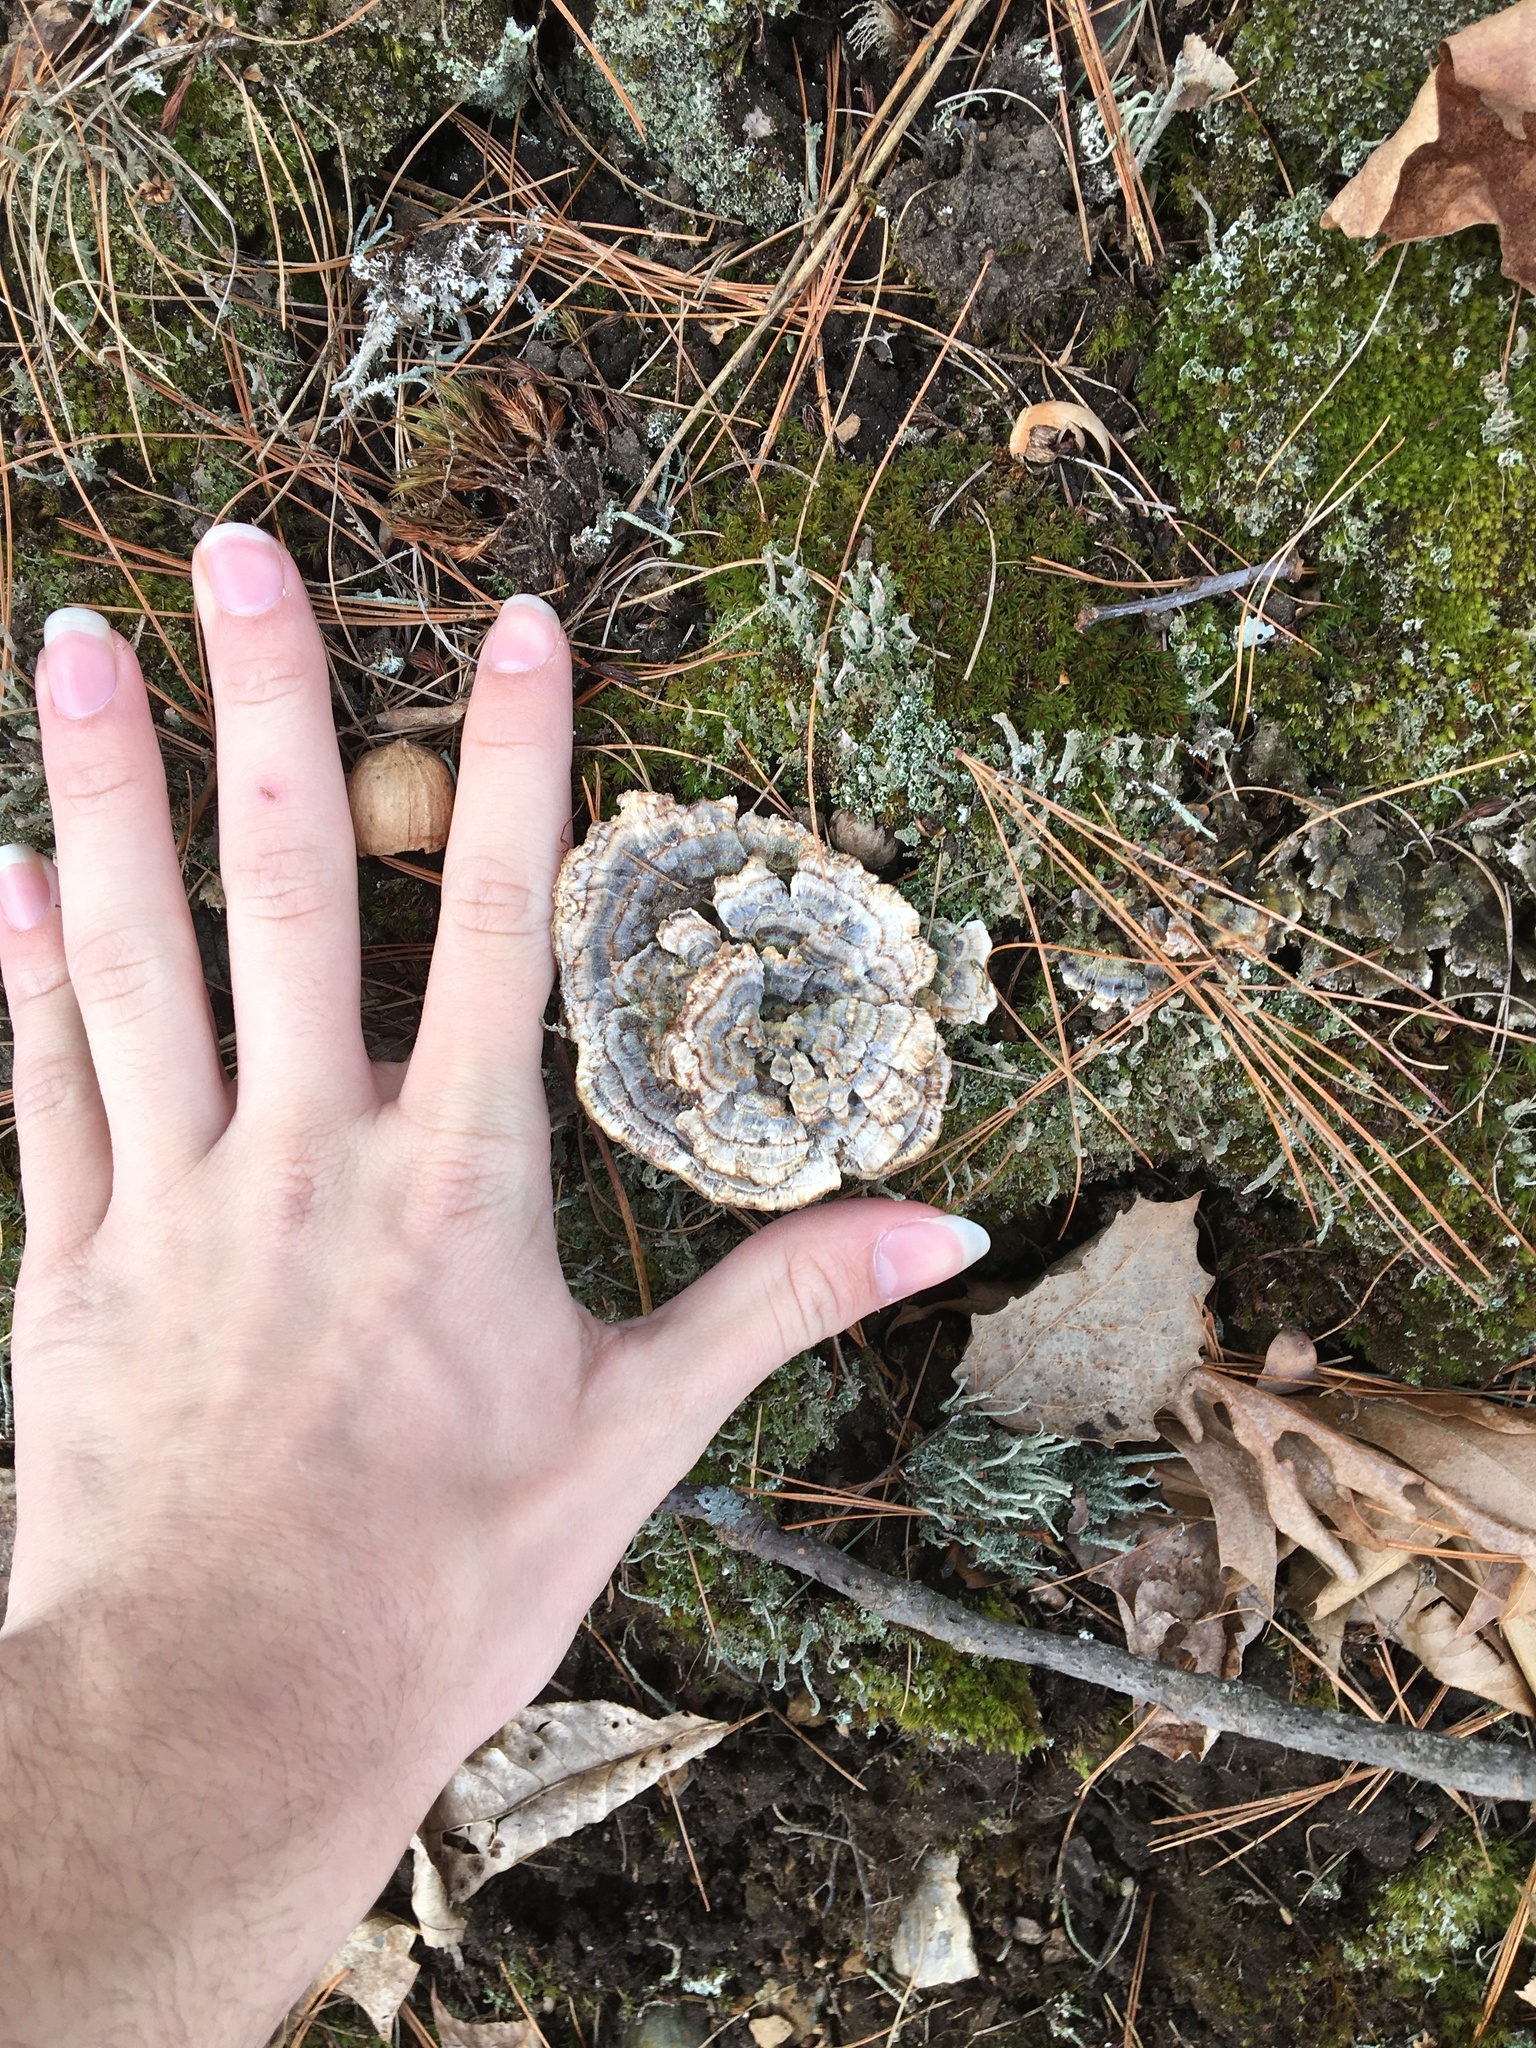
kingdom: Fungi
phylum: Basidiomycota
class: Agaricomycetes
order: Polyporales
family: Polyporaceae
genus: Trametes
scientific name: Trametes versicolor
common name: Turkeytail
